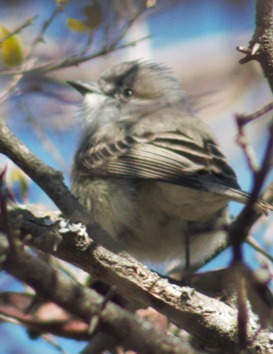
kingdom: Animalia
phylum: Chordata
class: Aves
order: Passeriformes
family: Tyrannidae
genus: Suiriri
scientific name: Suiriri suiriri
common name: Suiriri flycatcher
